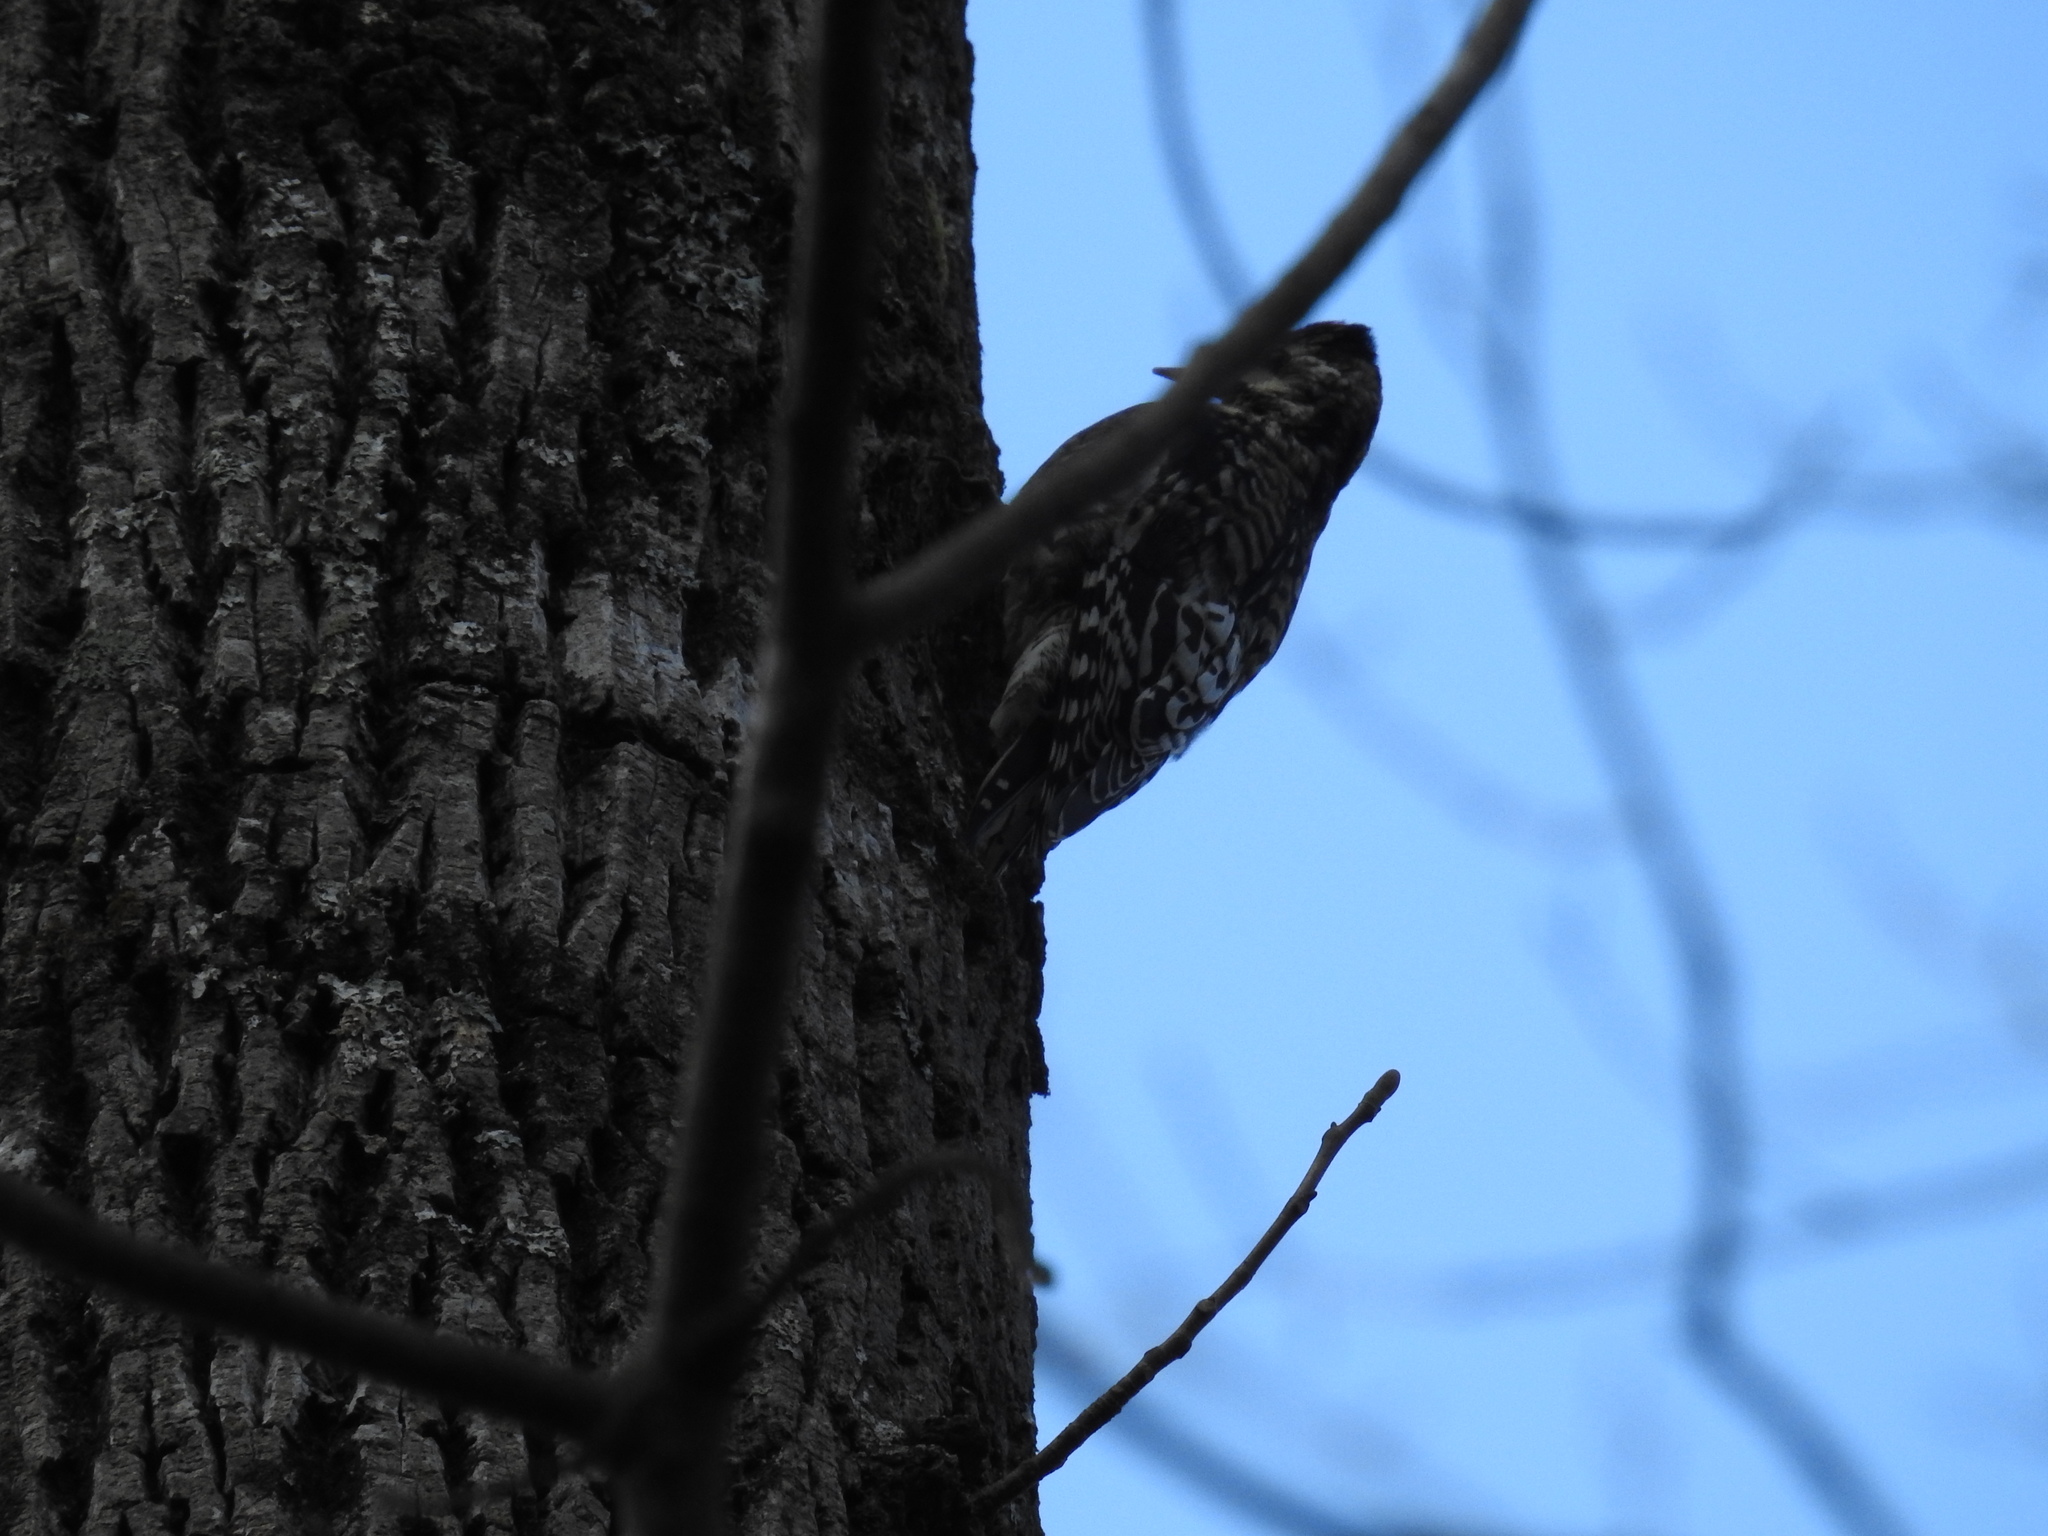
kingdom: Animalia
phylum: Chordata
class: Aves
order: Piciformes
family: Picidae
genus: Sphyrapicus
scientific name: Sphyrapicus varius
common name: Yellow-bellied sapsucker
